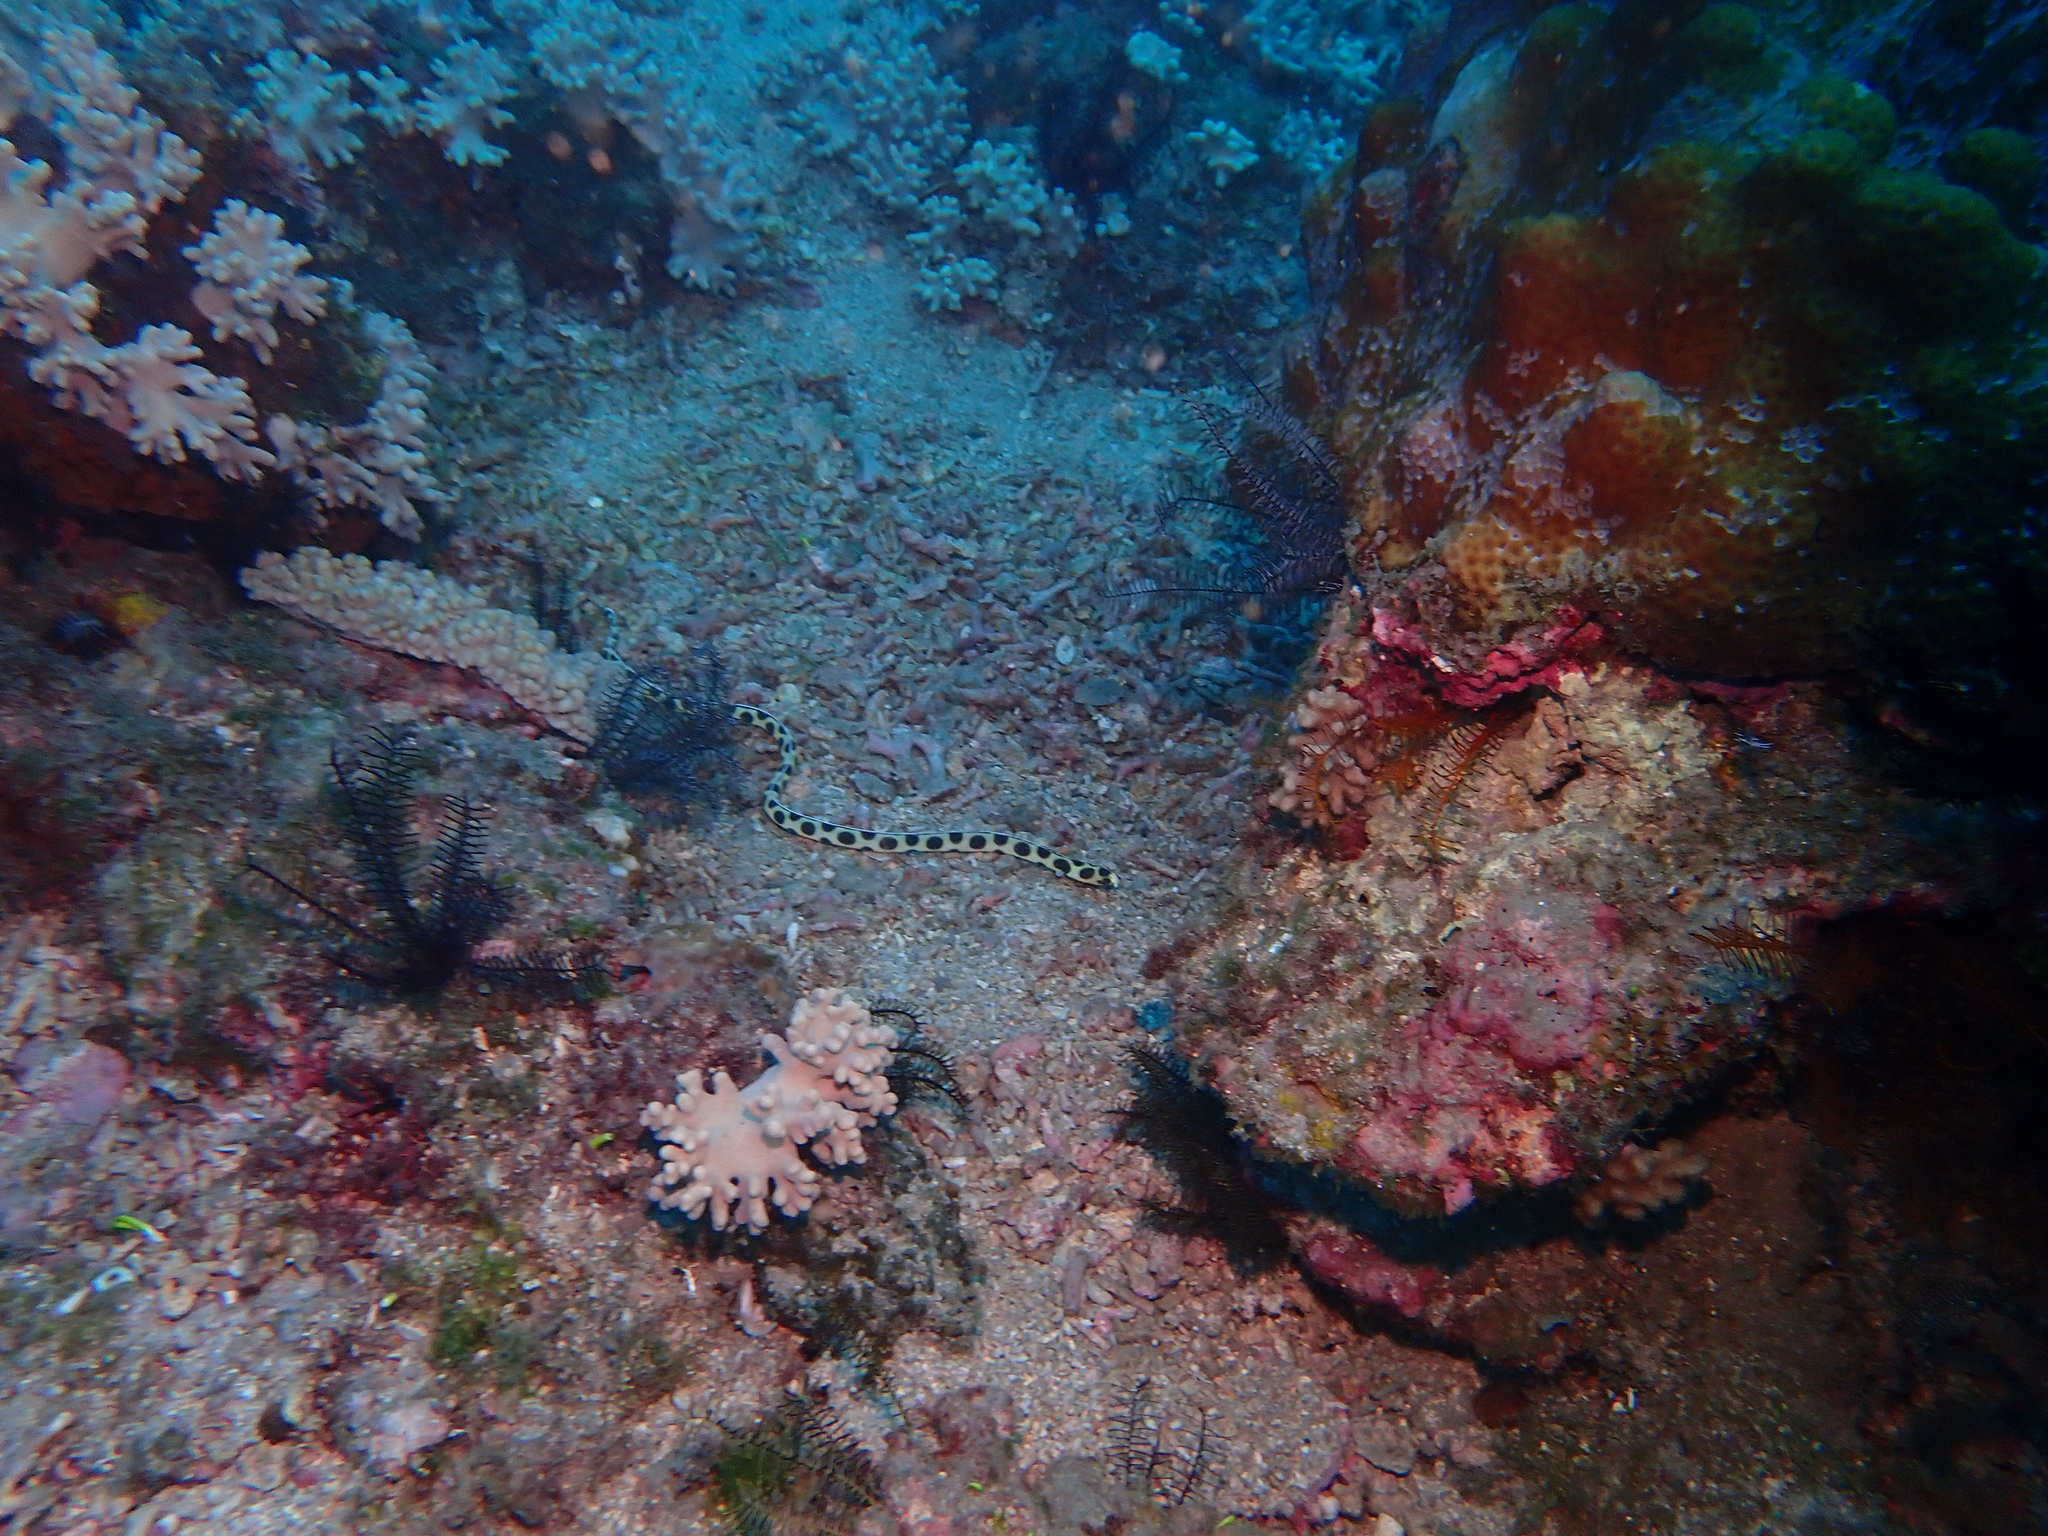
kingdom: Animalia
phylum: Chordata
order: Anguilliformes
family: Ophichthidae
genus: Myrichthys
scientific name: Myrichthys maculosus
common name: Spotted snake eel
